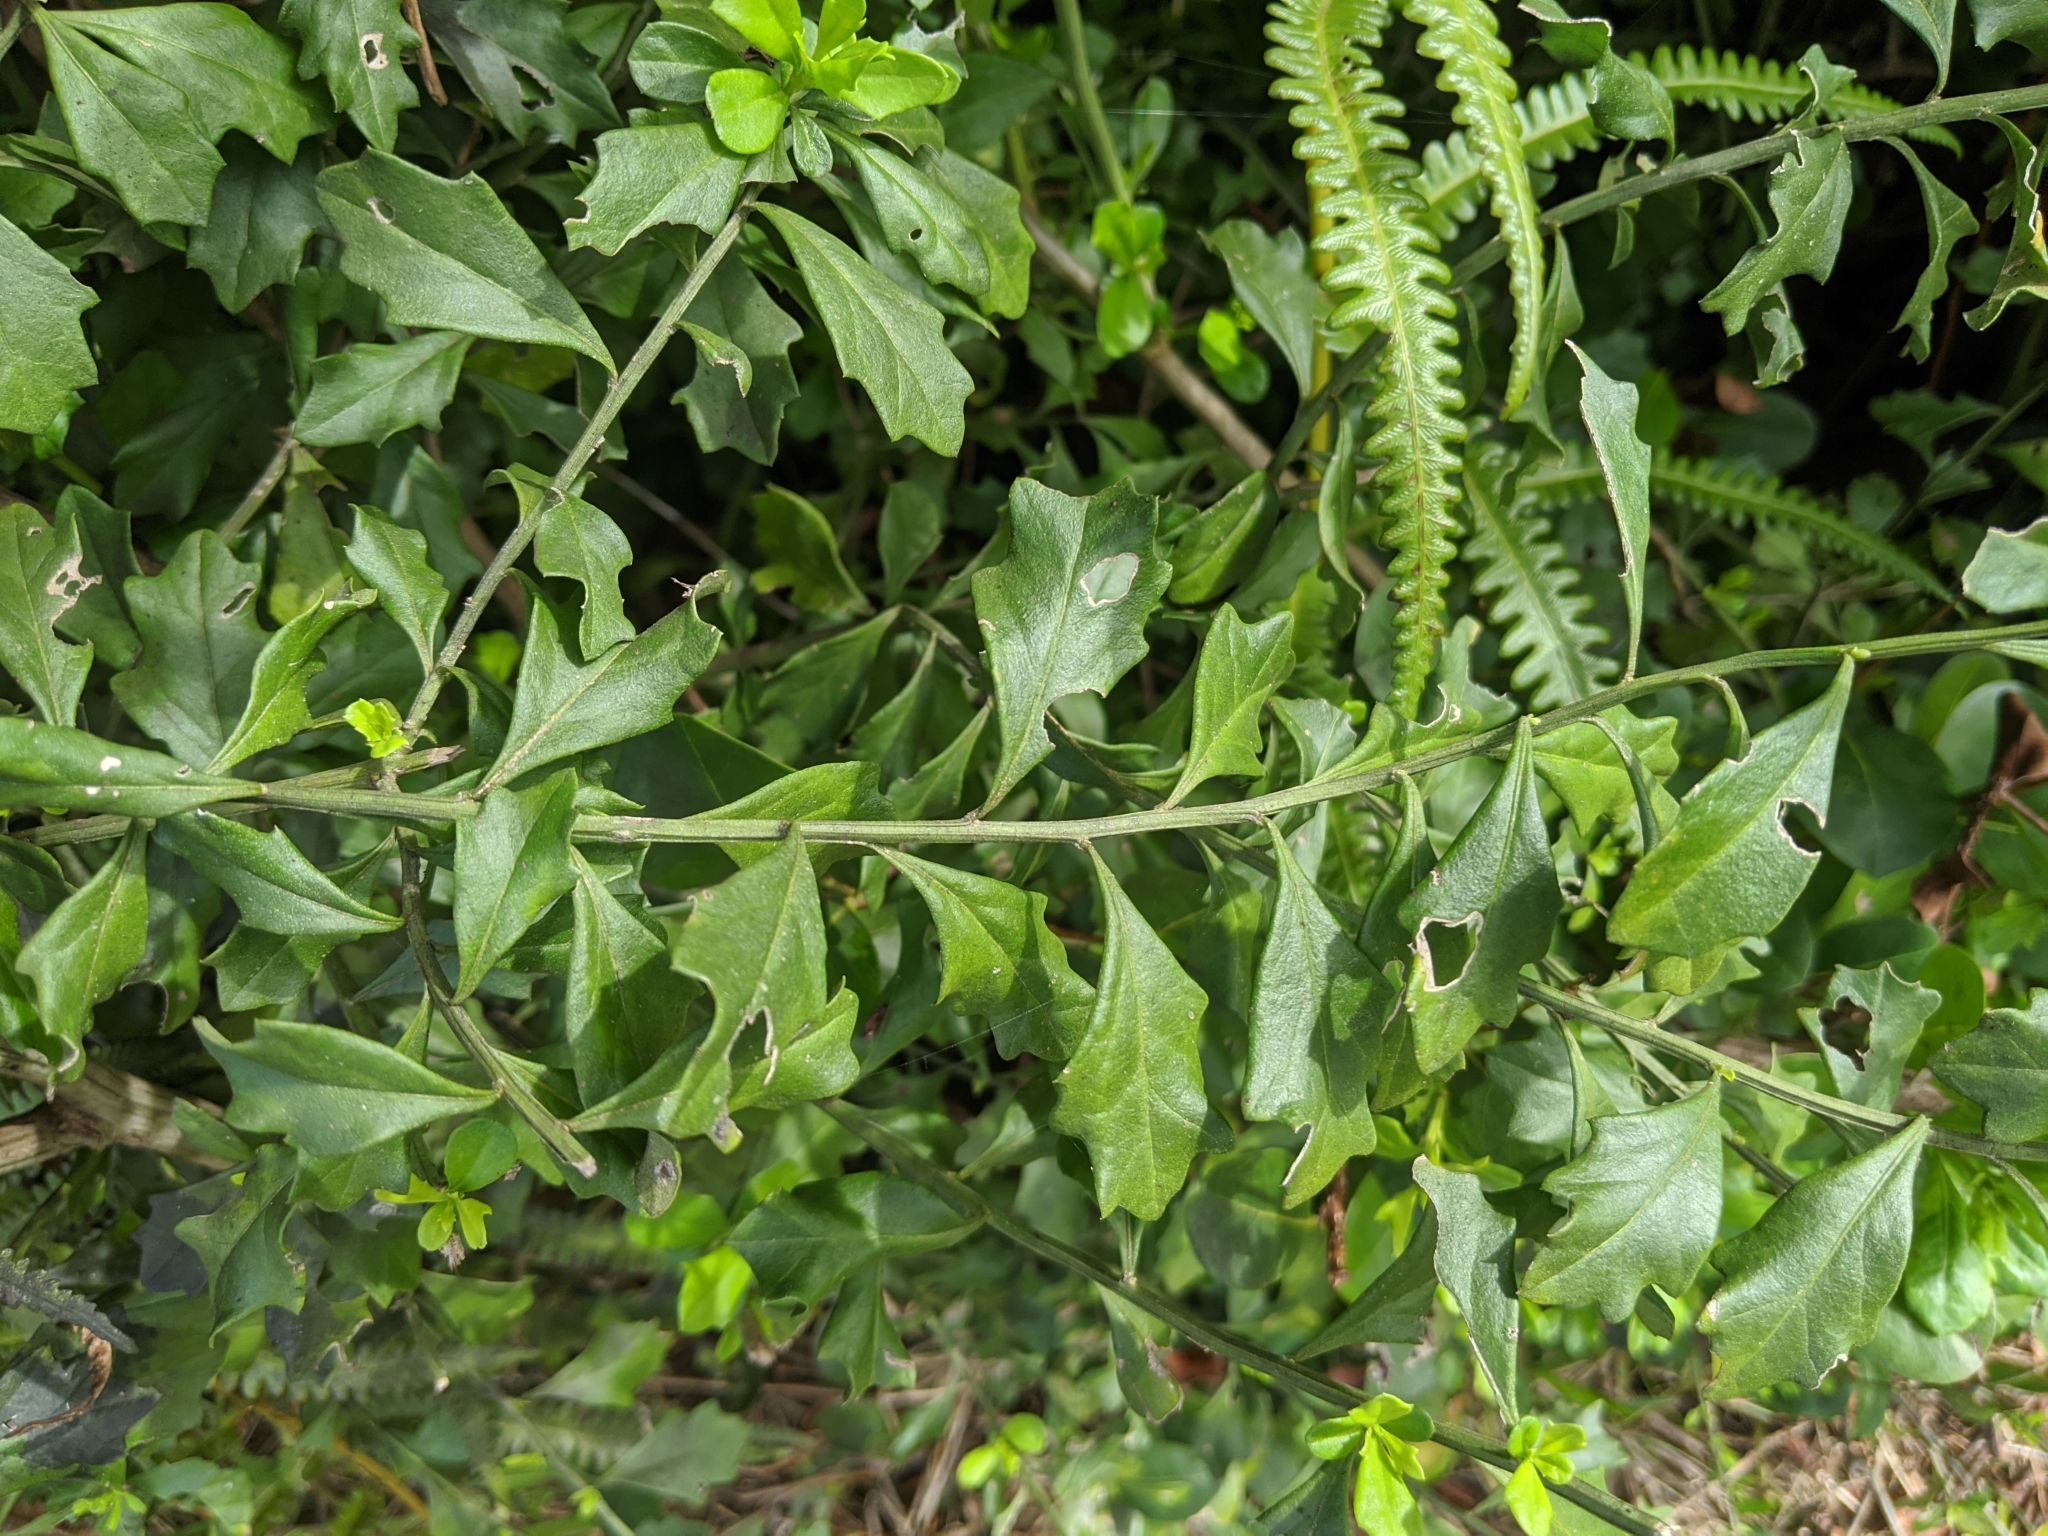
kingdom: Plantae
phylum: Tracheophyta
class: Magnoliopsida
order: Asterales
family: Asteraceae
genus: Baccharis
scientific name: Baccharis halimifolia
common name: Eastern baccharis
